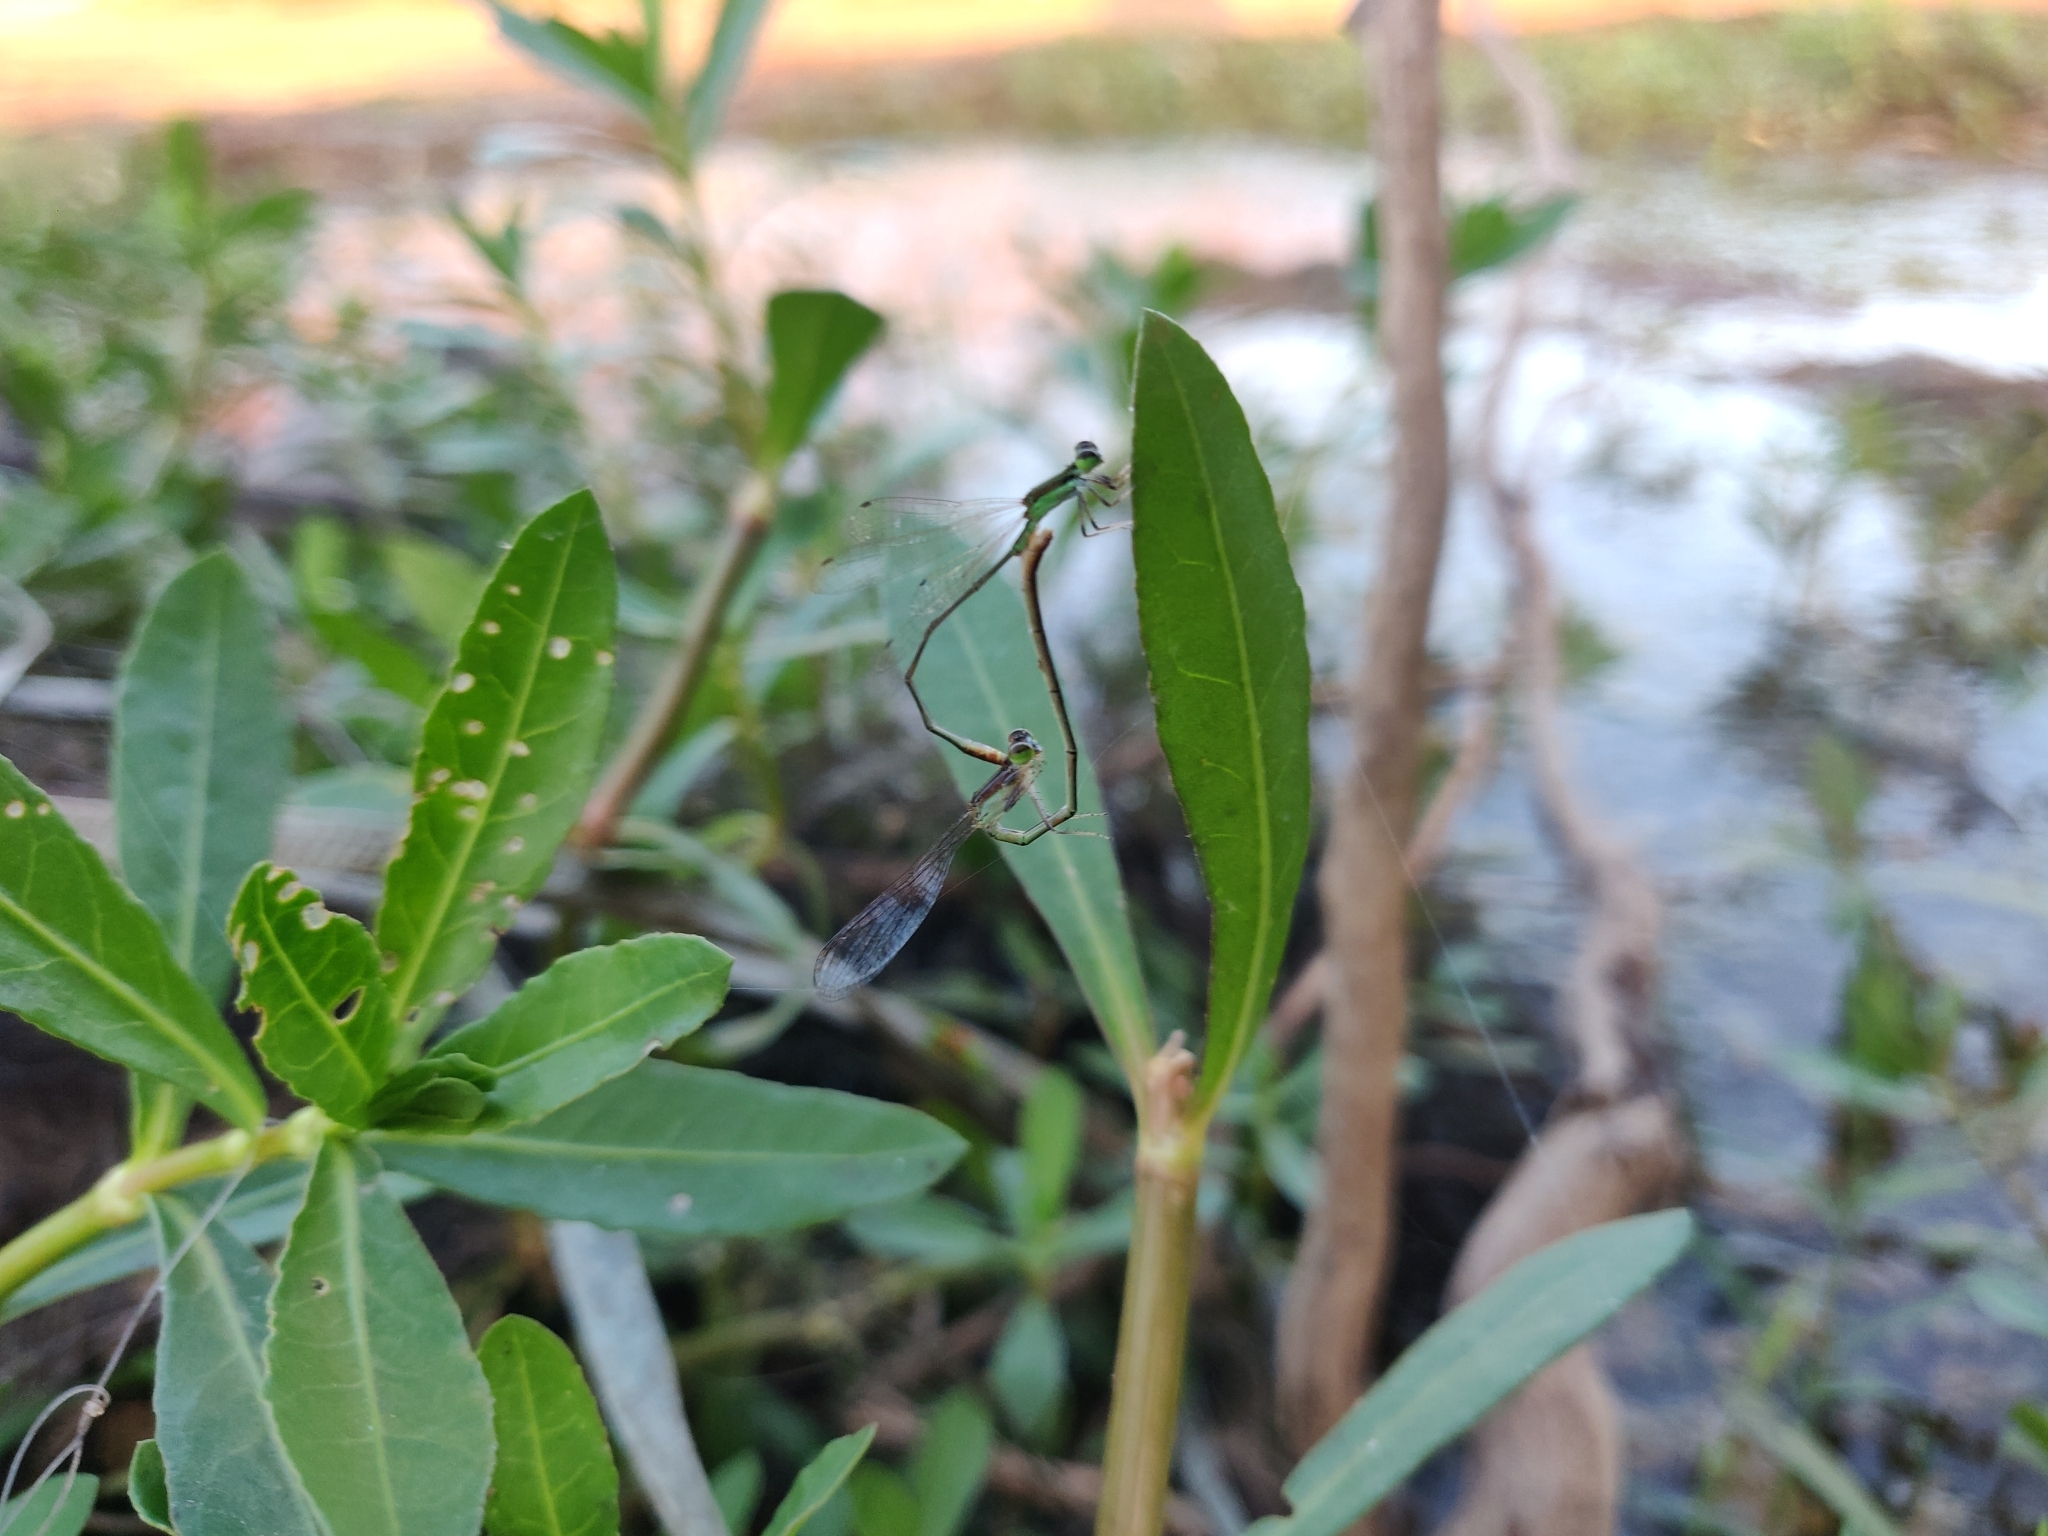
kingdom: Animalia
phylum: Arthropoda
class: Insecta
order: Odonata
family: Coenagrionidae
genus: Agriocnemis
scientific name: Agriocnemis pygmaea
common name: Pygmy wisp
